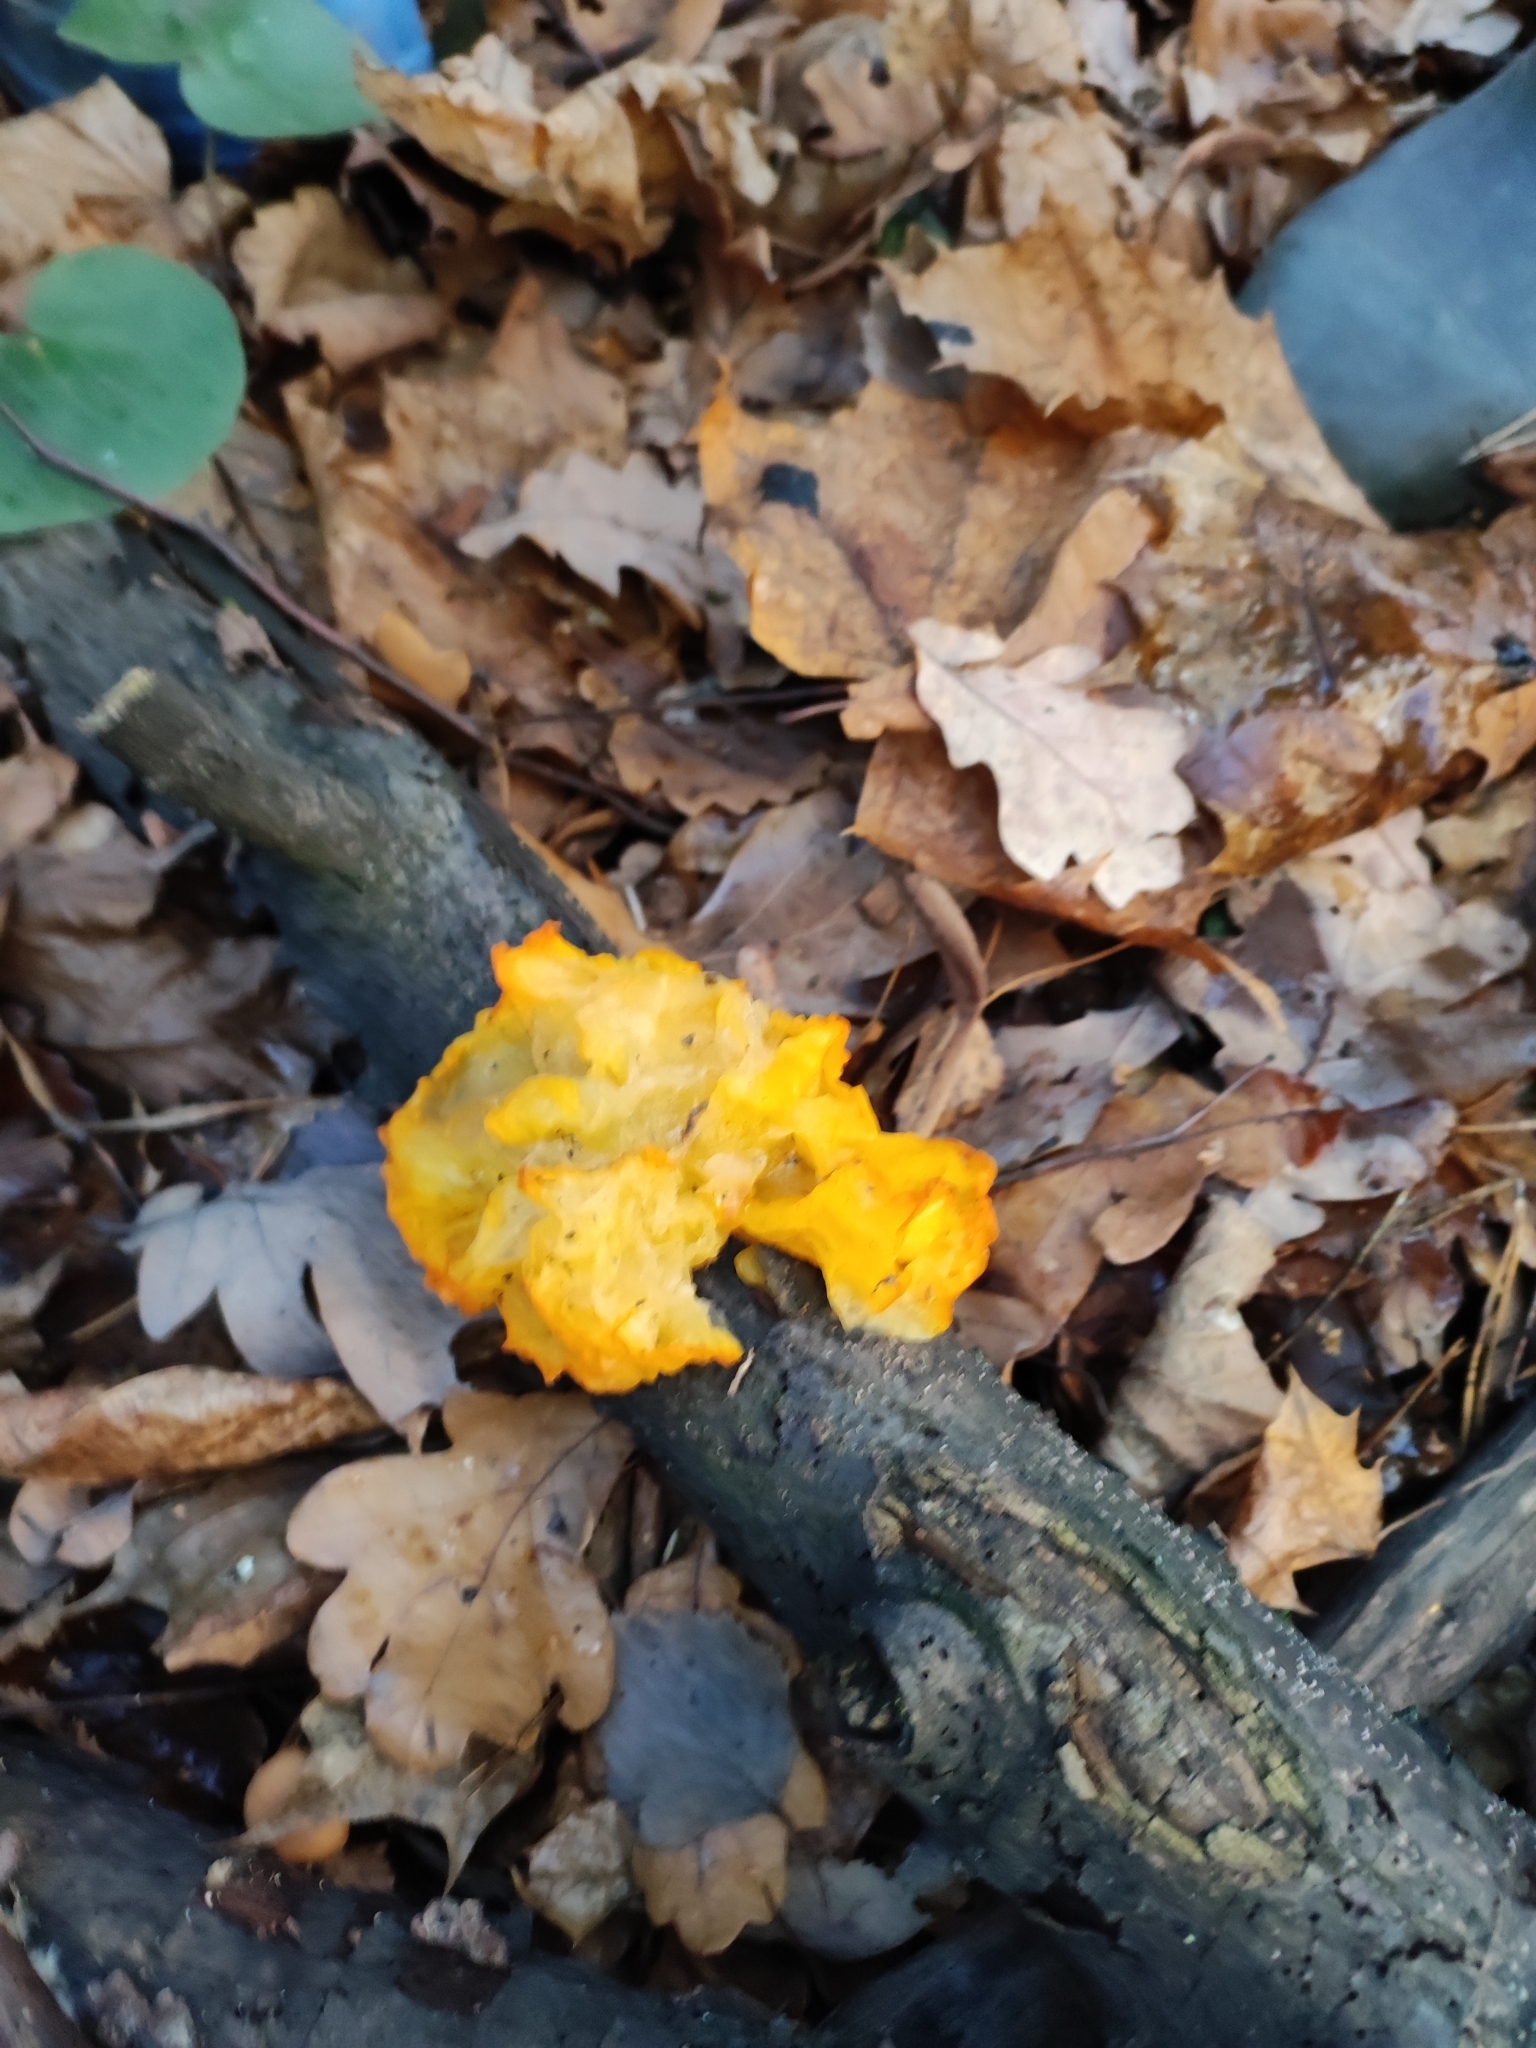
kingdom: Fungi
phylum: Basidiomycota
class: Tremellomycetes
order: Tremellales
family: Tremellaceae
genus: Tremella
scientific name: Tremella mesenterica
